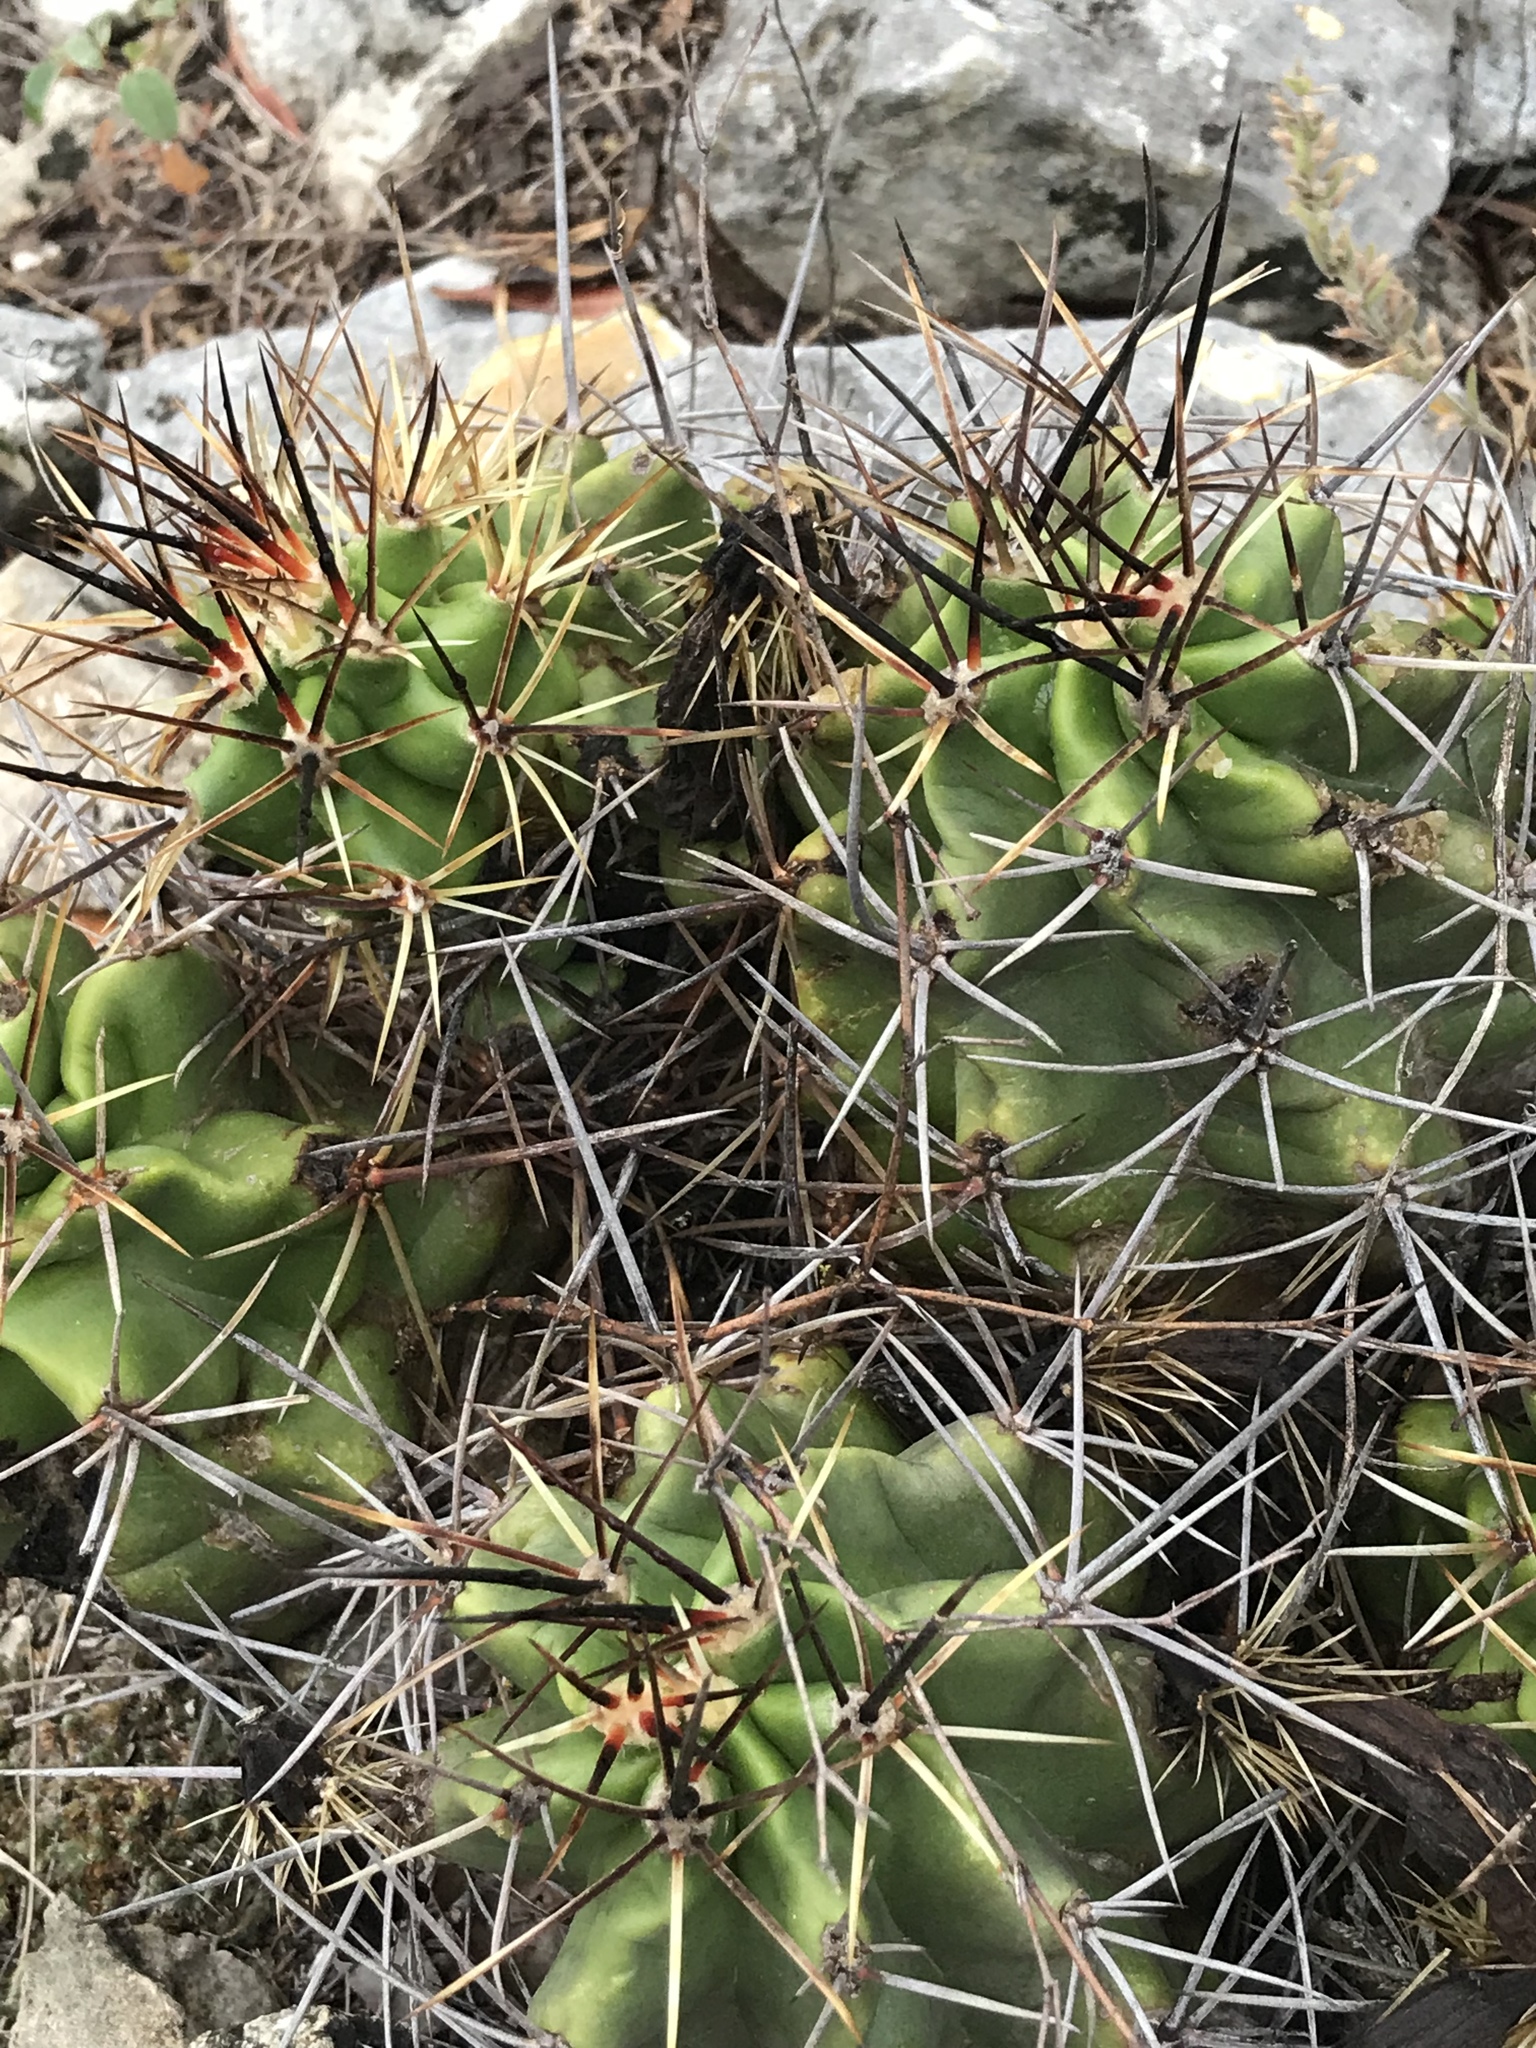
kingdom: Plantae
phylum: Tracheophyta
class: Magnoliopsida
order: Caryophyllales
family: Cactaceae
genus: Echinocereus
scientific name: Echinocereus coccineus
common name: Scarlet hedgehog cactus
